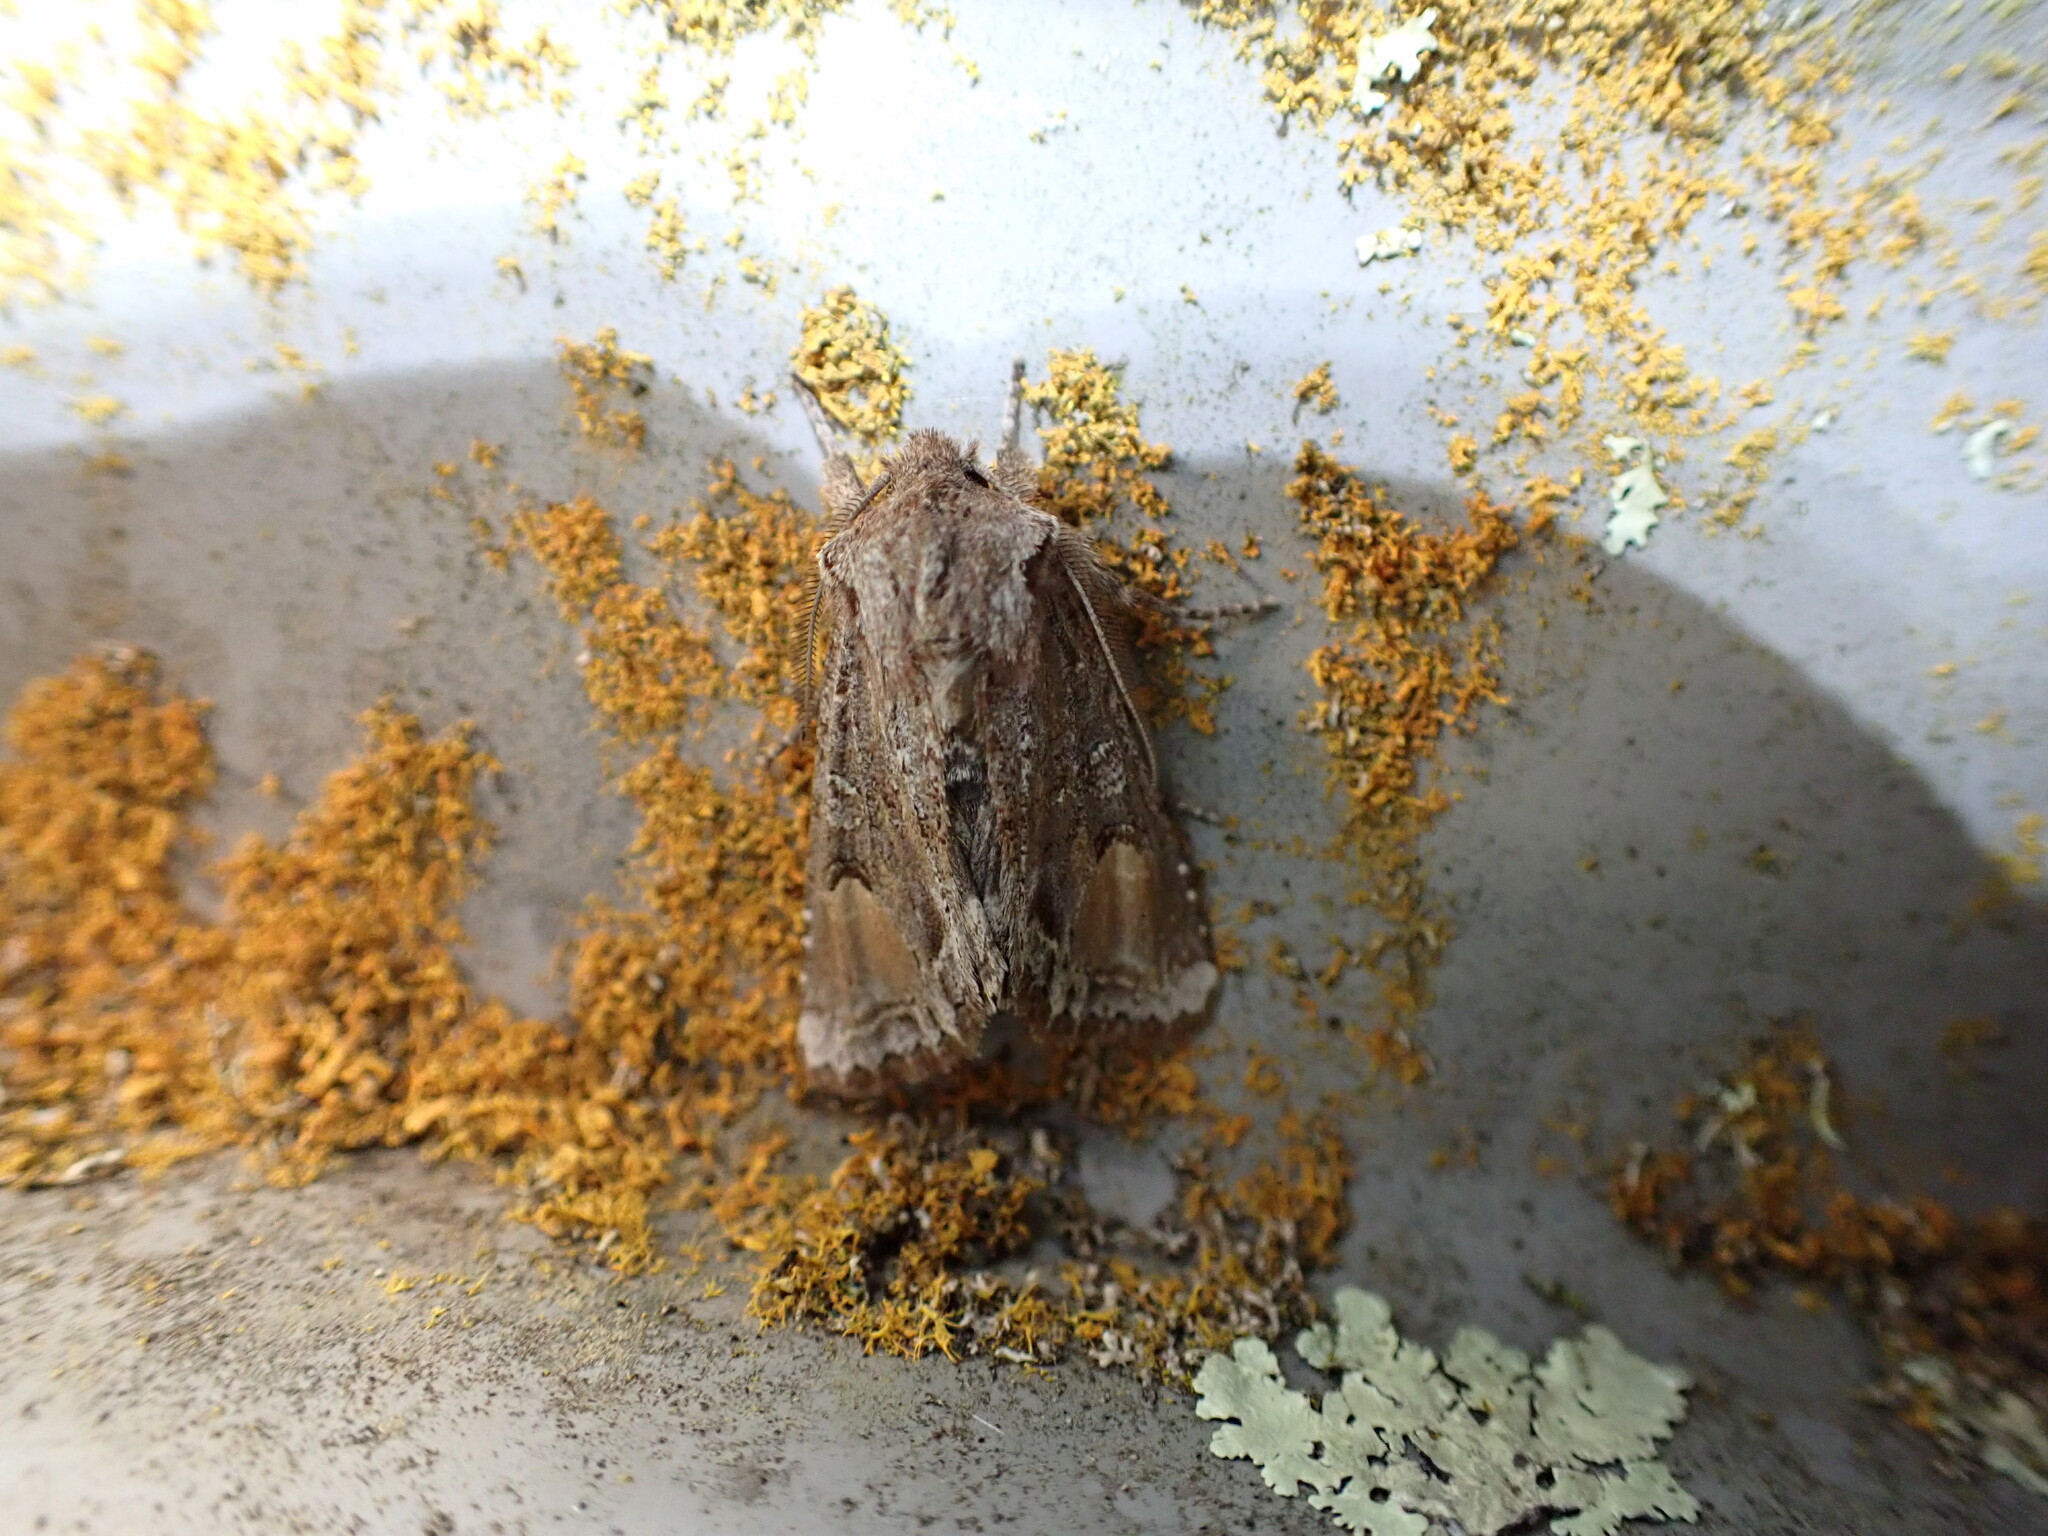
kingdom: Animalia
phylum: Arthropoda
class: Insecta
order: Lepidoptera
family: Noctuidae
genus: Ichneutica
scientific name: Ichneutica
